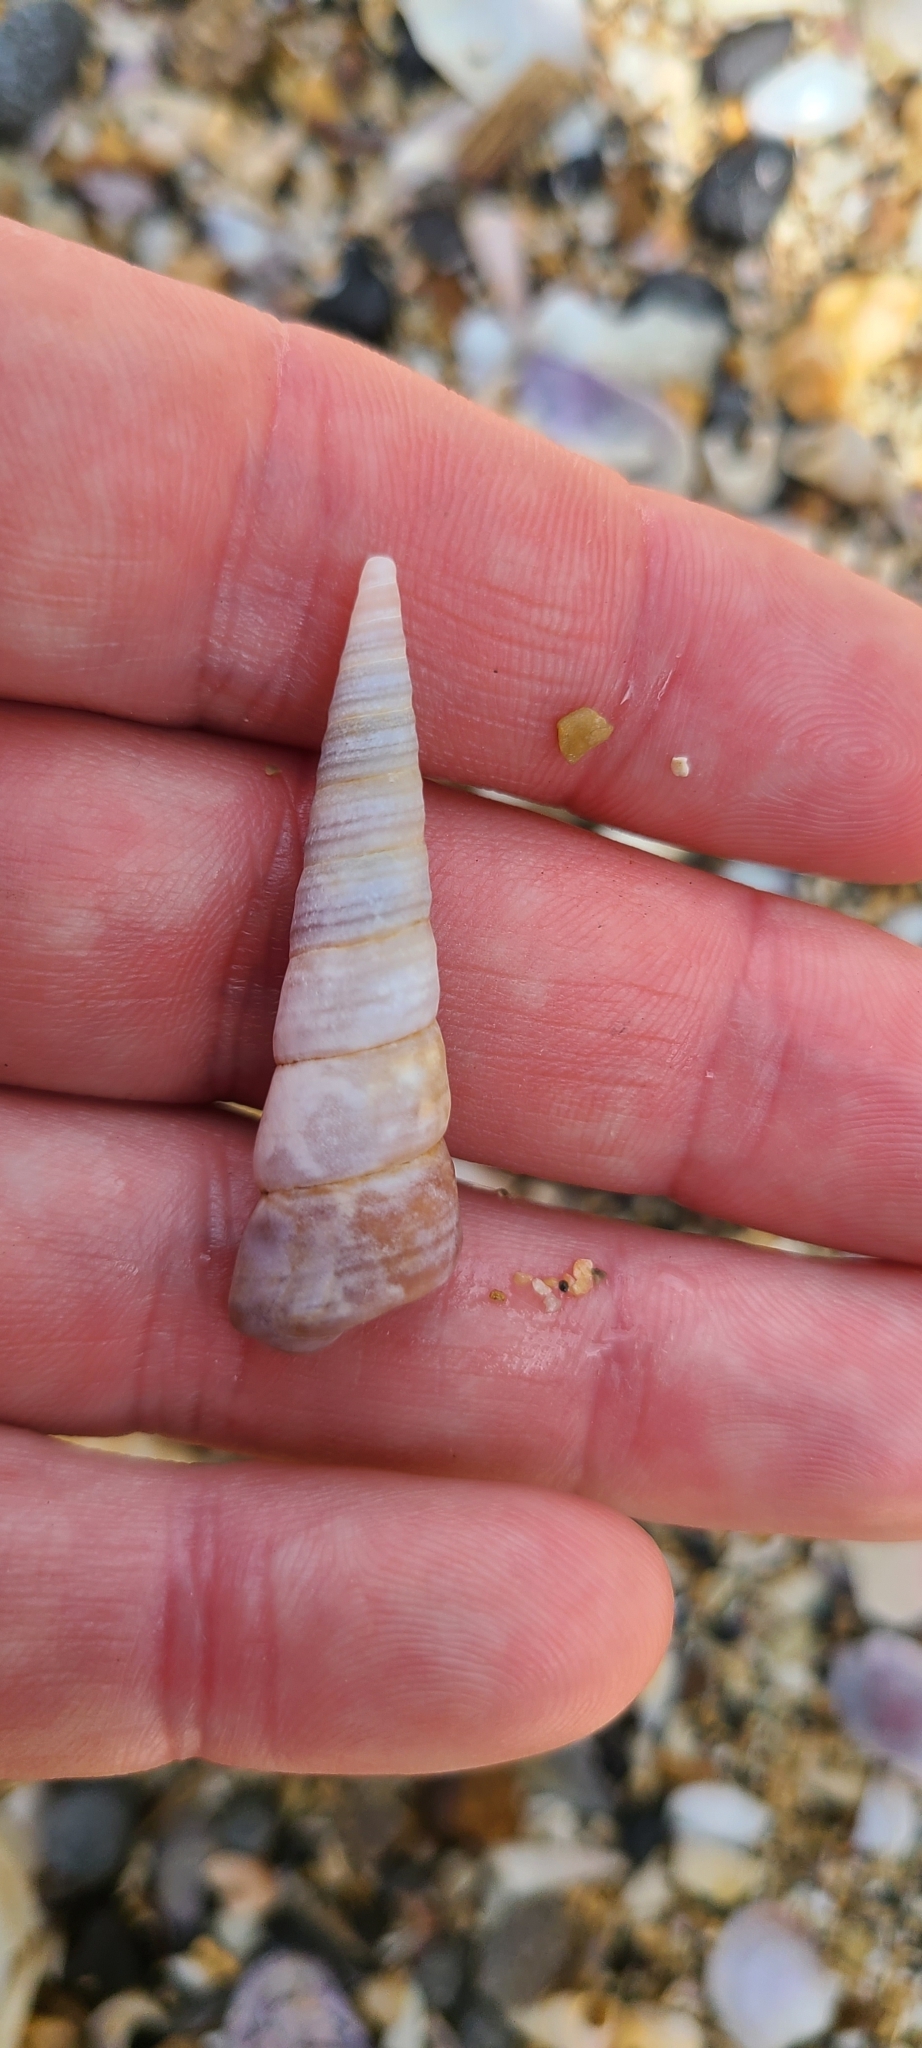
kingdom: Animalia
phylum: Mollusca
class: Gastropoda
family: Turritellidae
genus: Maoricolpus
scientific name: Maoricolpus roseus
